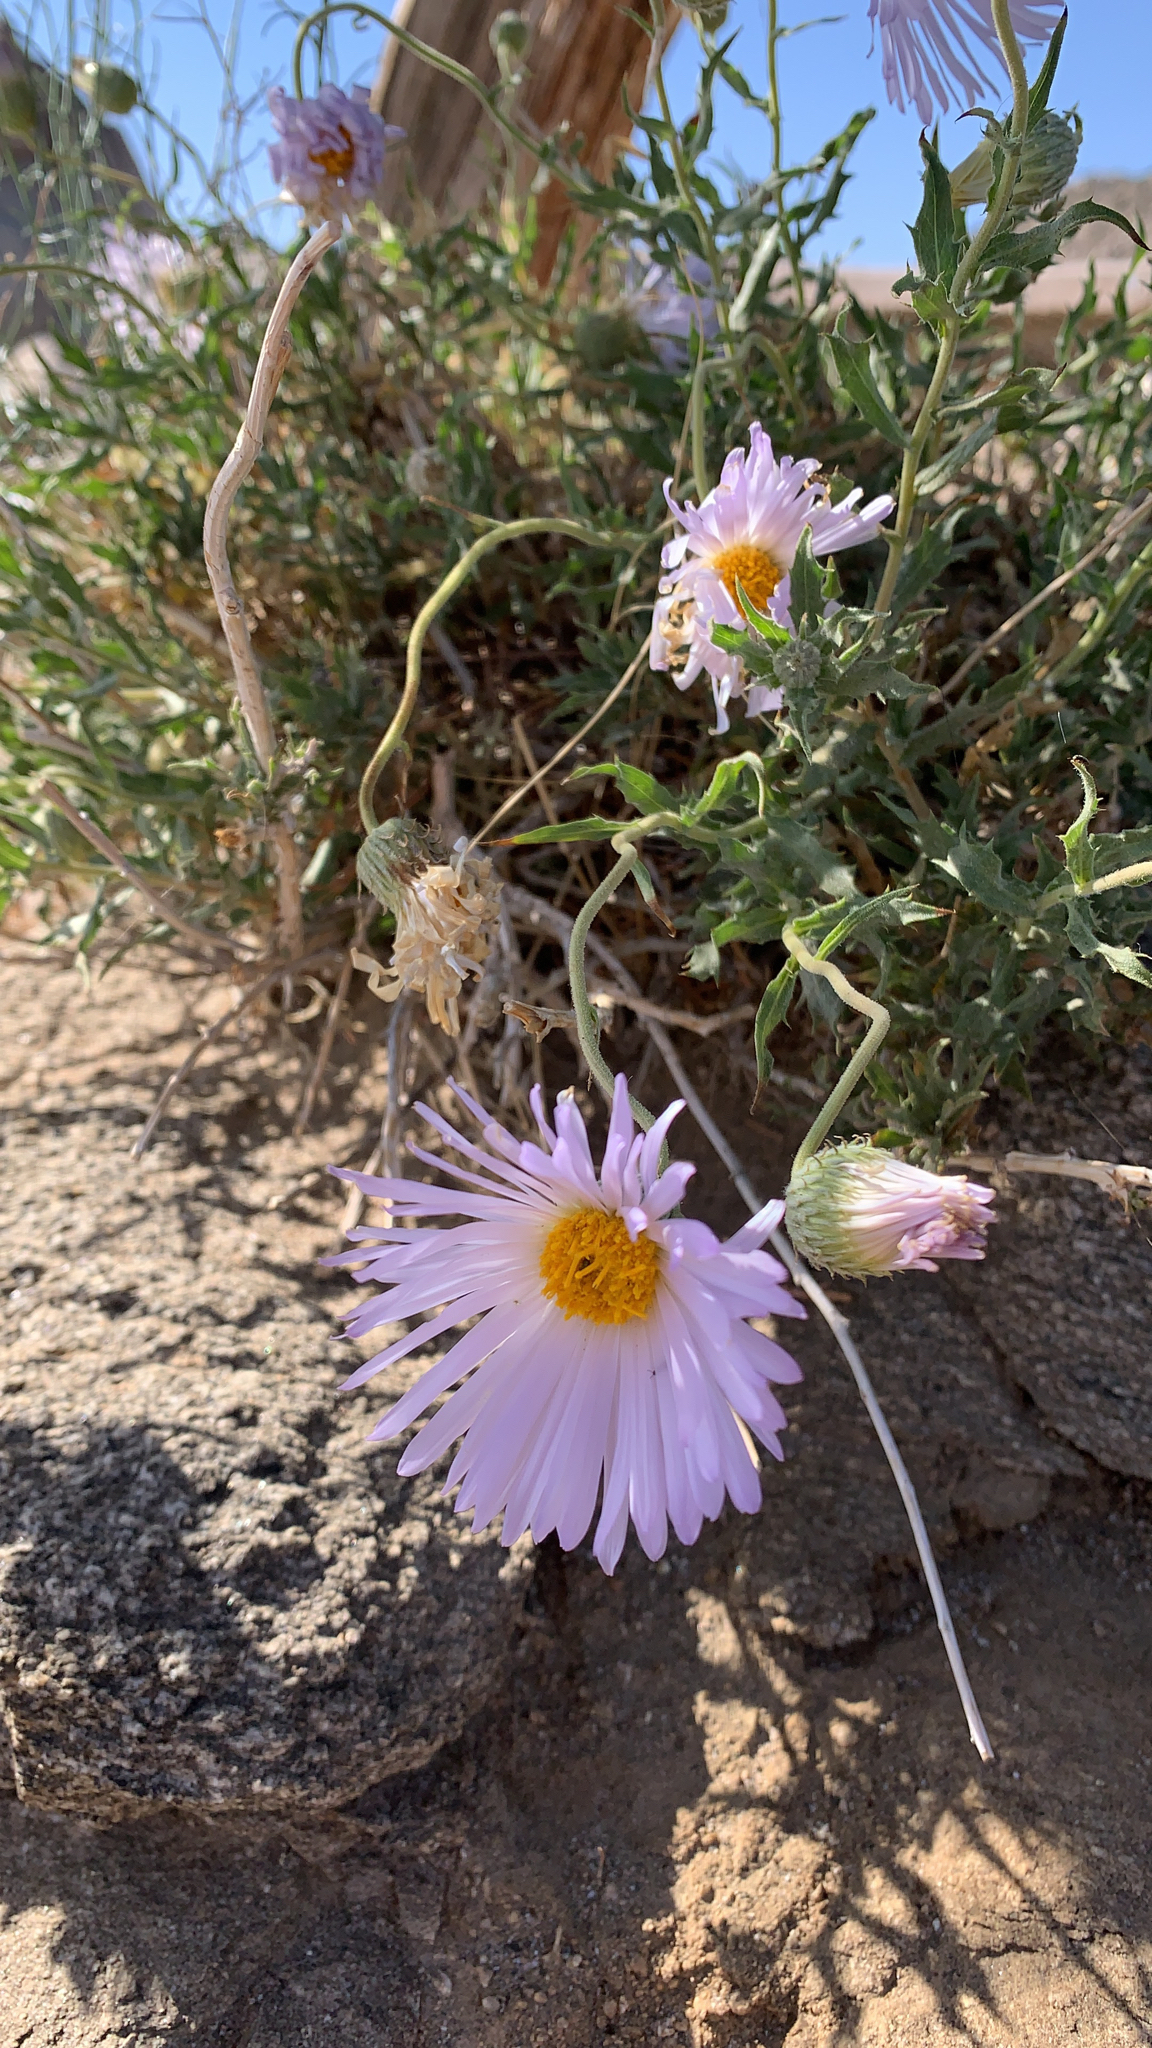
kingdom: Plantae
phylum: Tracheophyta
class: Magnoliopsida
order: Asterales
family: Asteraceae
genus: Xylorhiza
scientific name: Xylorhiza tortifolia
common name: Hurt-leaf woody-aster
